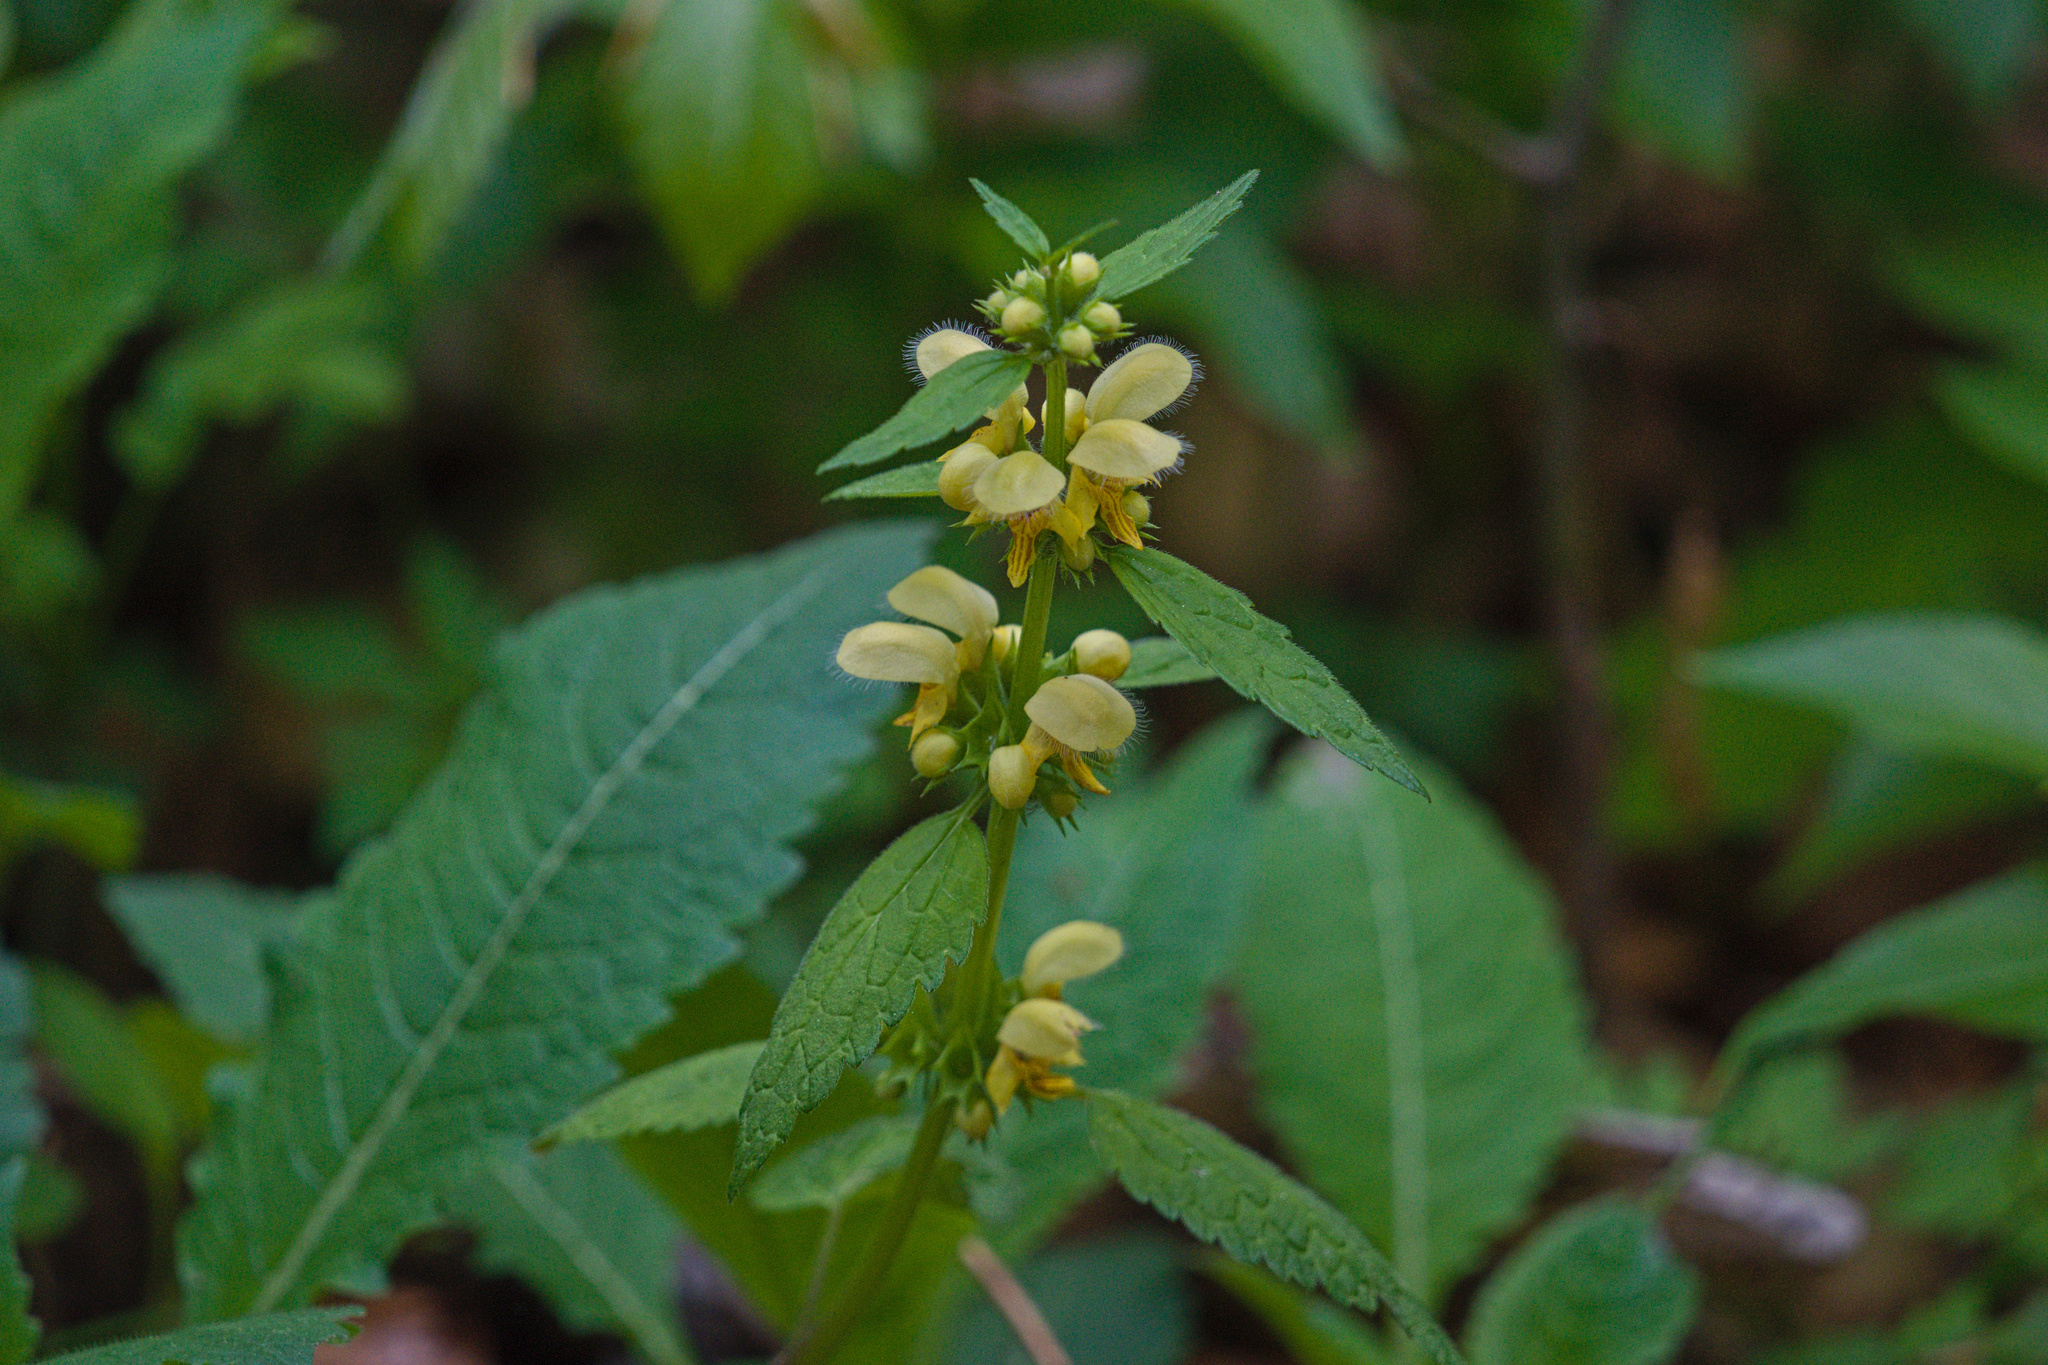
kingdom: Plantae
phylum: Tracheophyta
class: Magnoliopsida
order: Lamiales
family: Lamiaceae
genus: Lamium
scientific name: Lamium galeobdolon
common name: Yellow archangel
